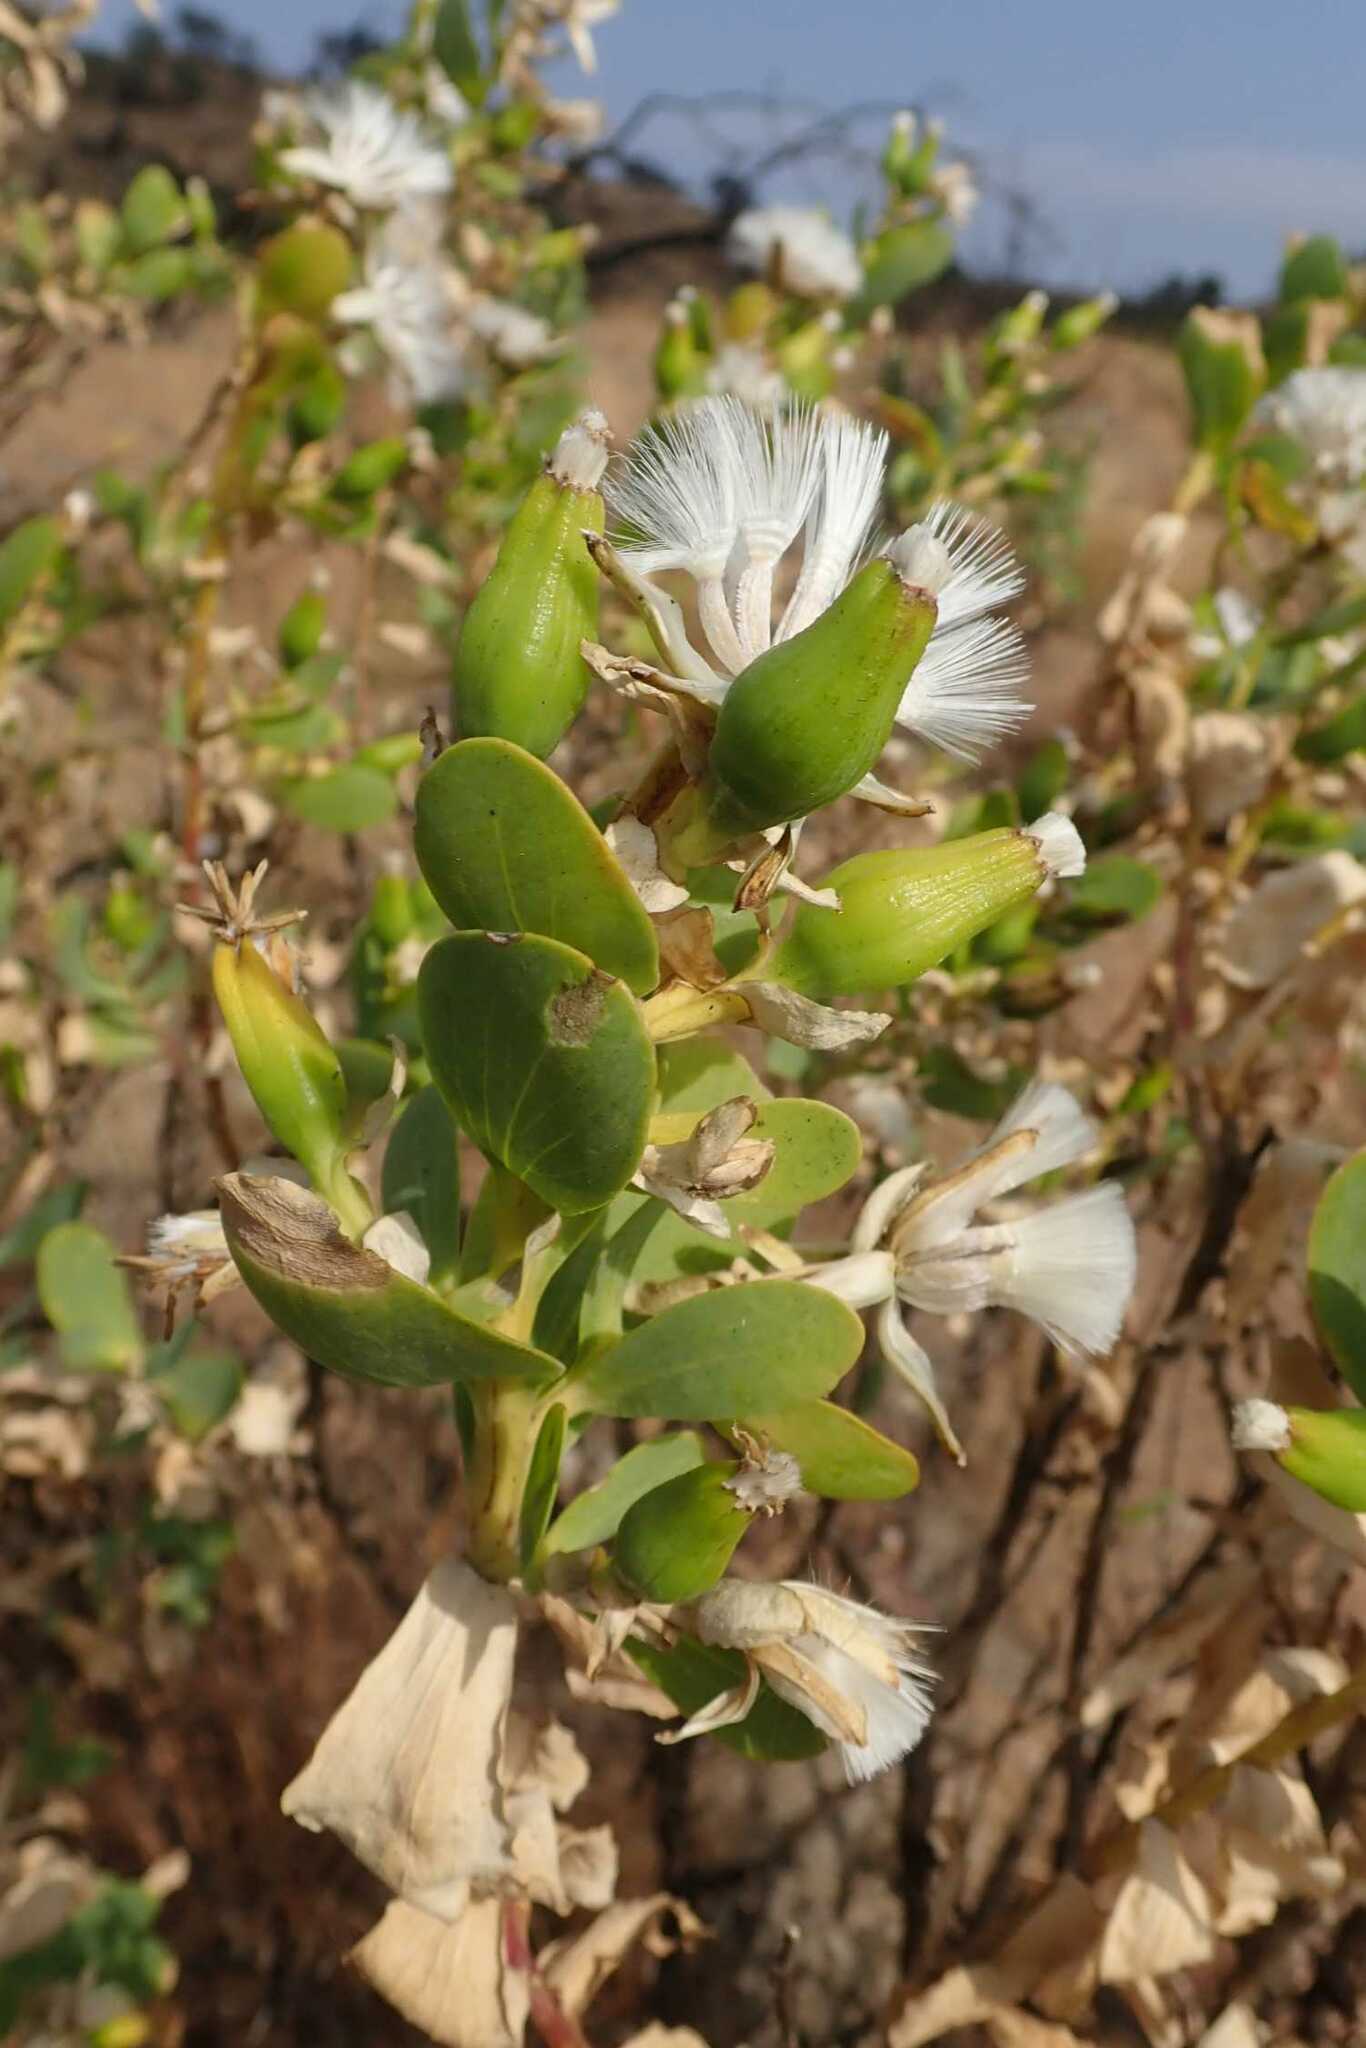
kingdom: Plantae
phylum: Tracheophyta
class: Magnoliopsida
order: Asterales
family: Asteraceae
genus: Lopholaena
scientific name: Lopholaena coriifolia
